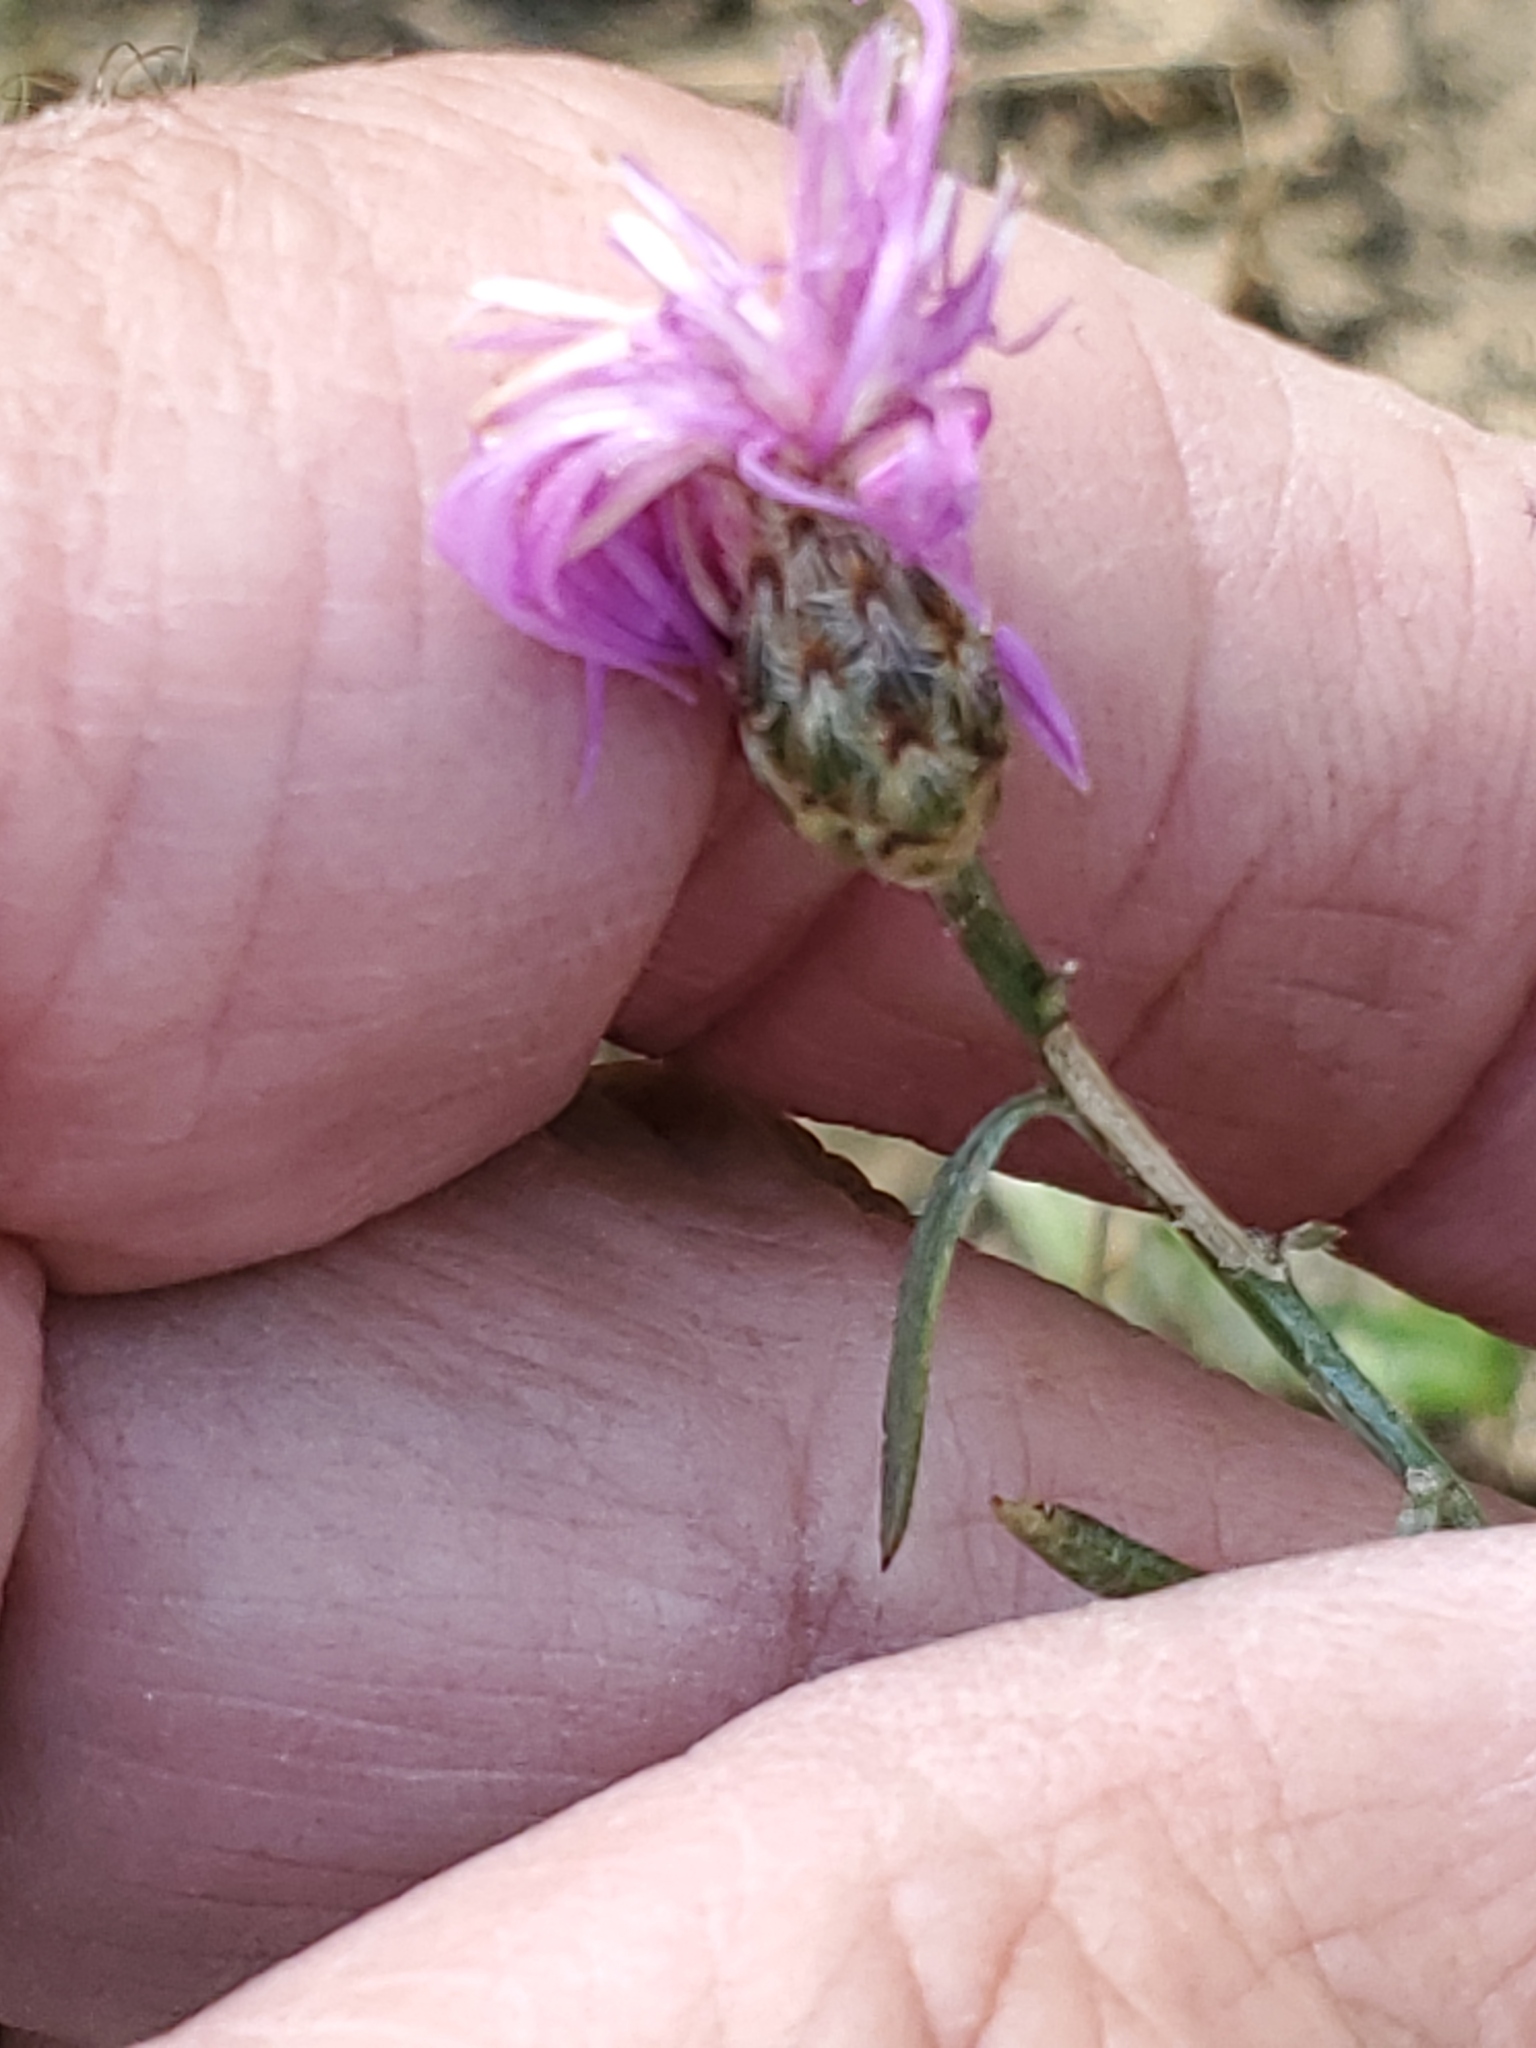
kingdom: Plantae
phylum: Tracheophyta
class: Magnoliopsida
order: Asterales
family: Asteraceae
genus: Centaurea
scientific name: Centaurea stoebe
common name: Spotted knapweed
